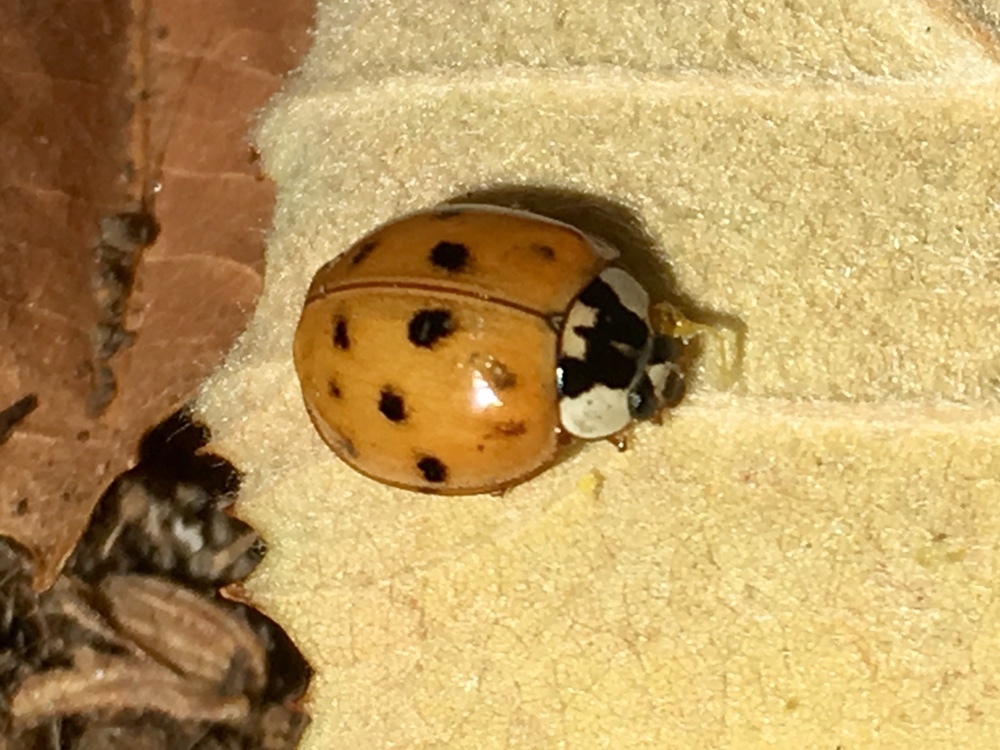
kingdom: Animalia
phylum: Arthropoda
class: Insecta
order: Coleoptera
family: Coccinellidae
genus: Harmonia
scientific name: Harmonia axyridis
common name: Harlequin ladybird
